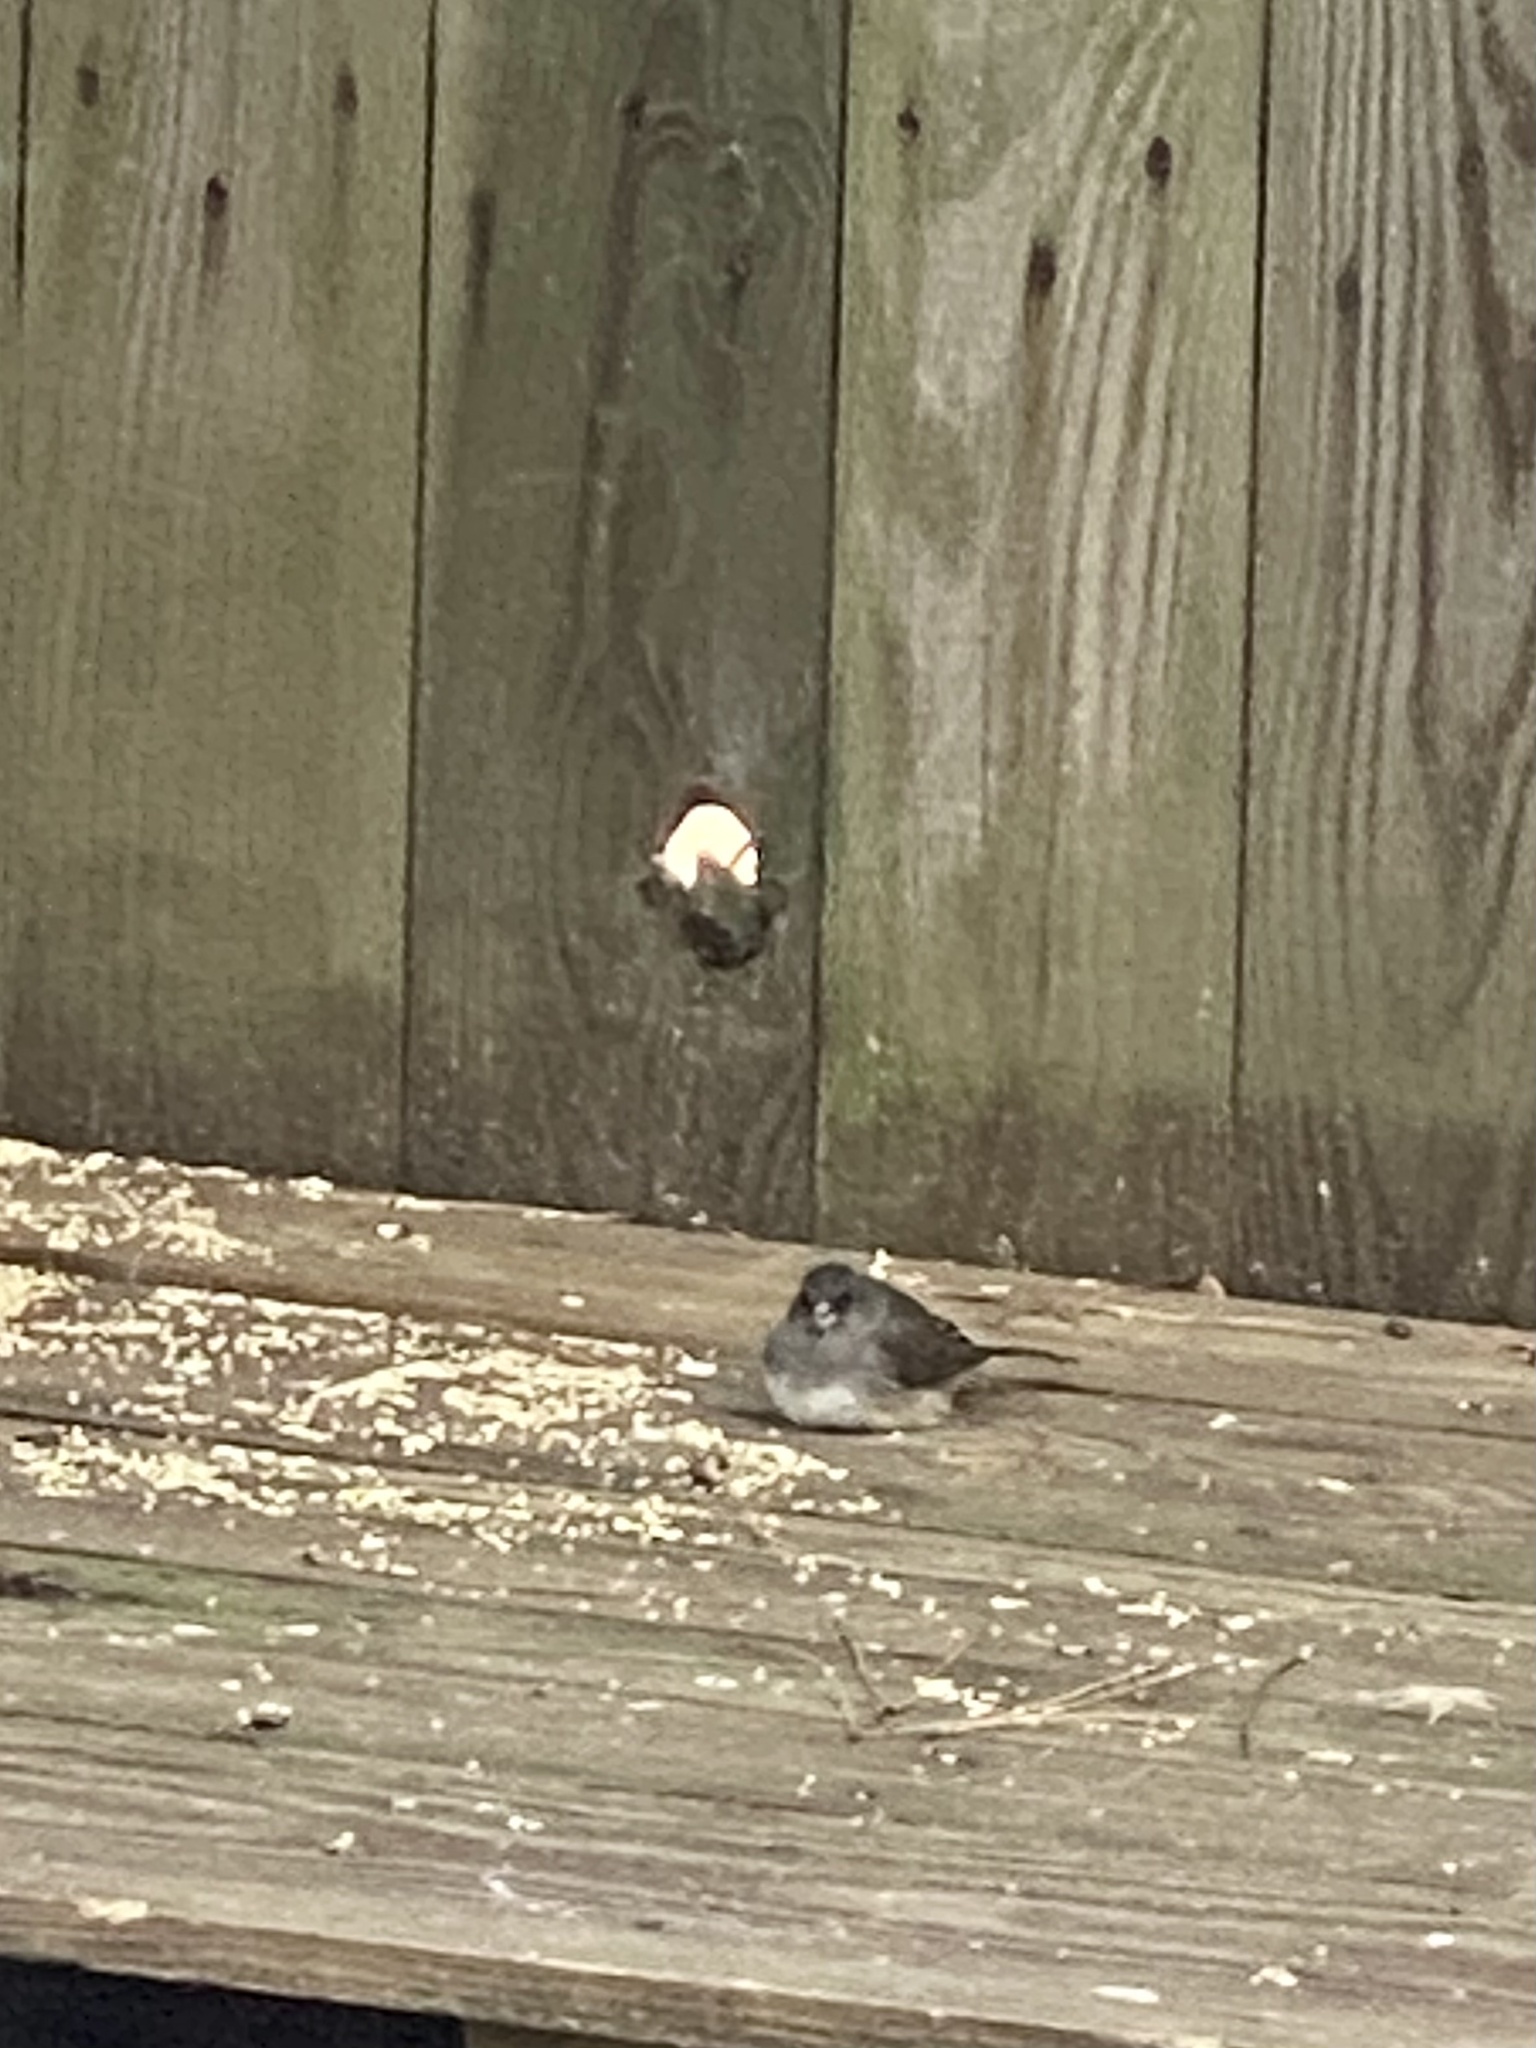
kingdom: Animalia
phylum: Chordata
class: Aves
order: Passeriformes
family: Passerellidae
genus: Junco
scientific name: Junco hyemalis
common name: Dark-eyed junco
